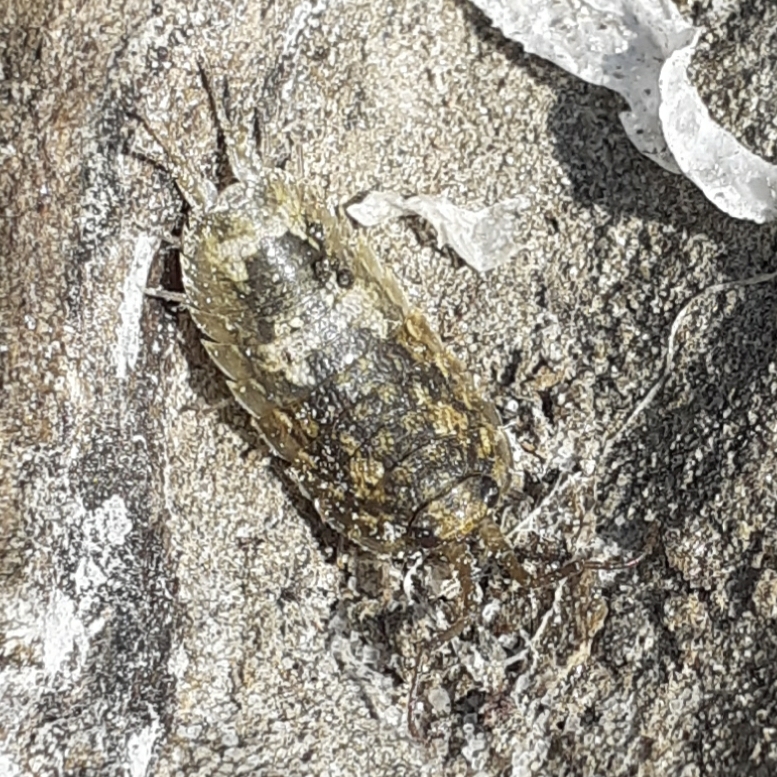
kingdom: Animalia
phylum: Arthropoda
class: Malacostraca
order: Isopoda
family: Ligiidae
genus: Ligia
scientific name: Ligia oceanica
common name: Sea slater
